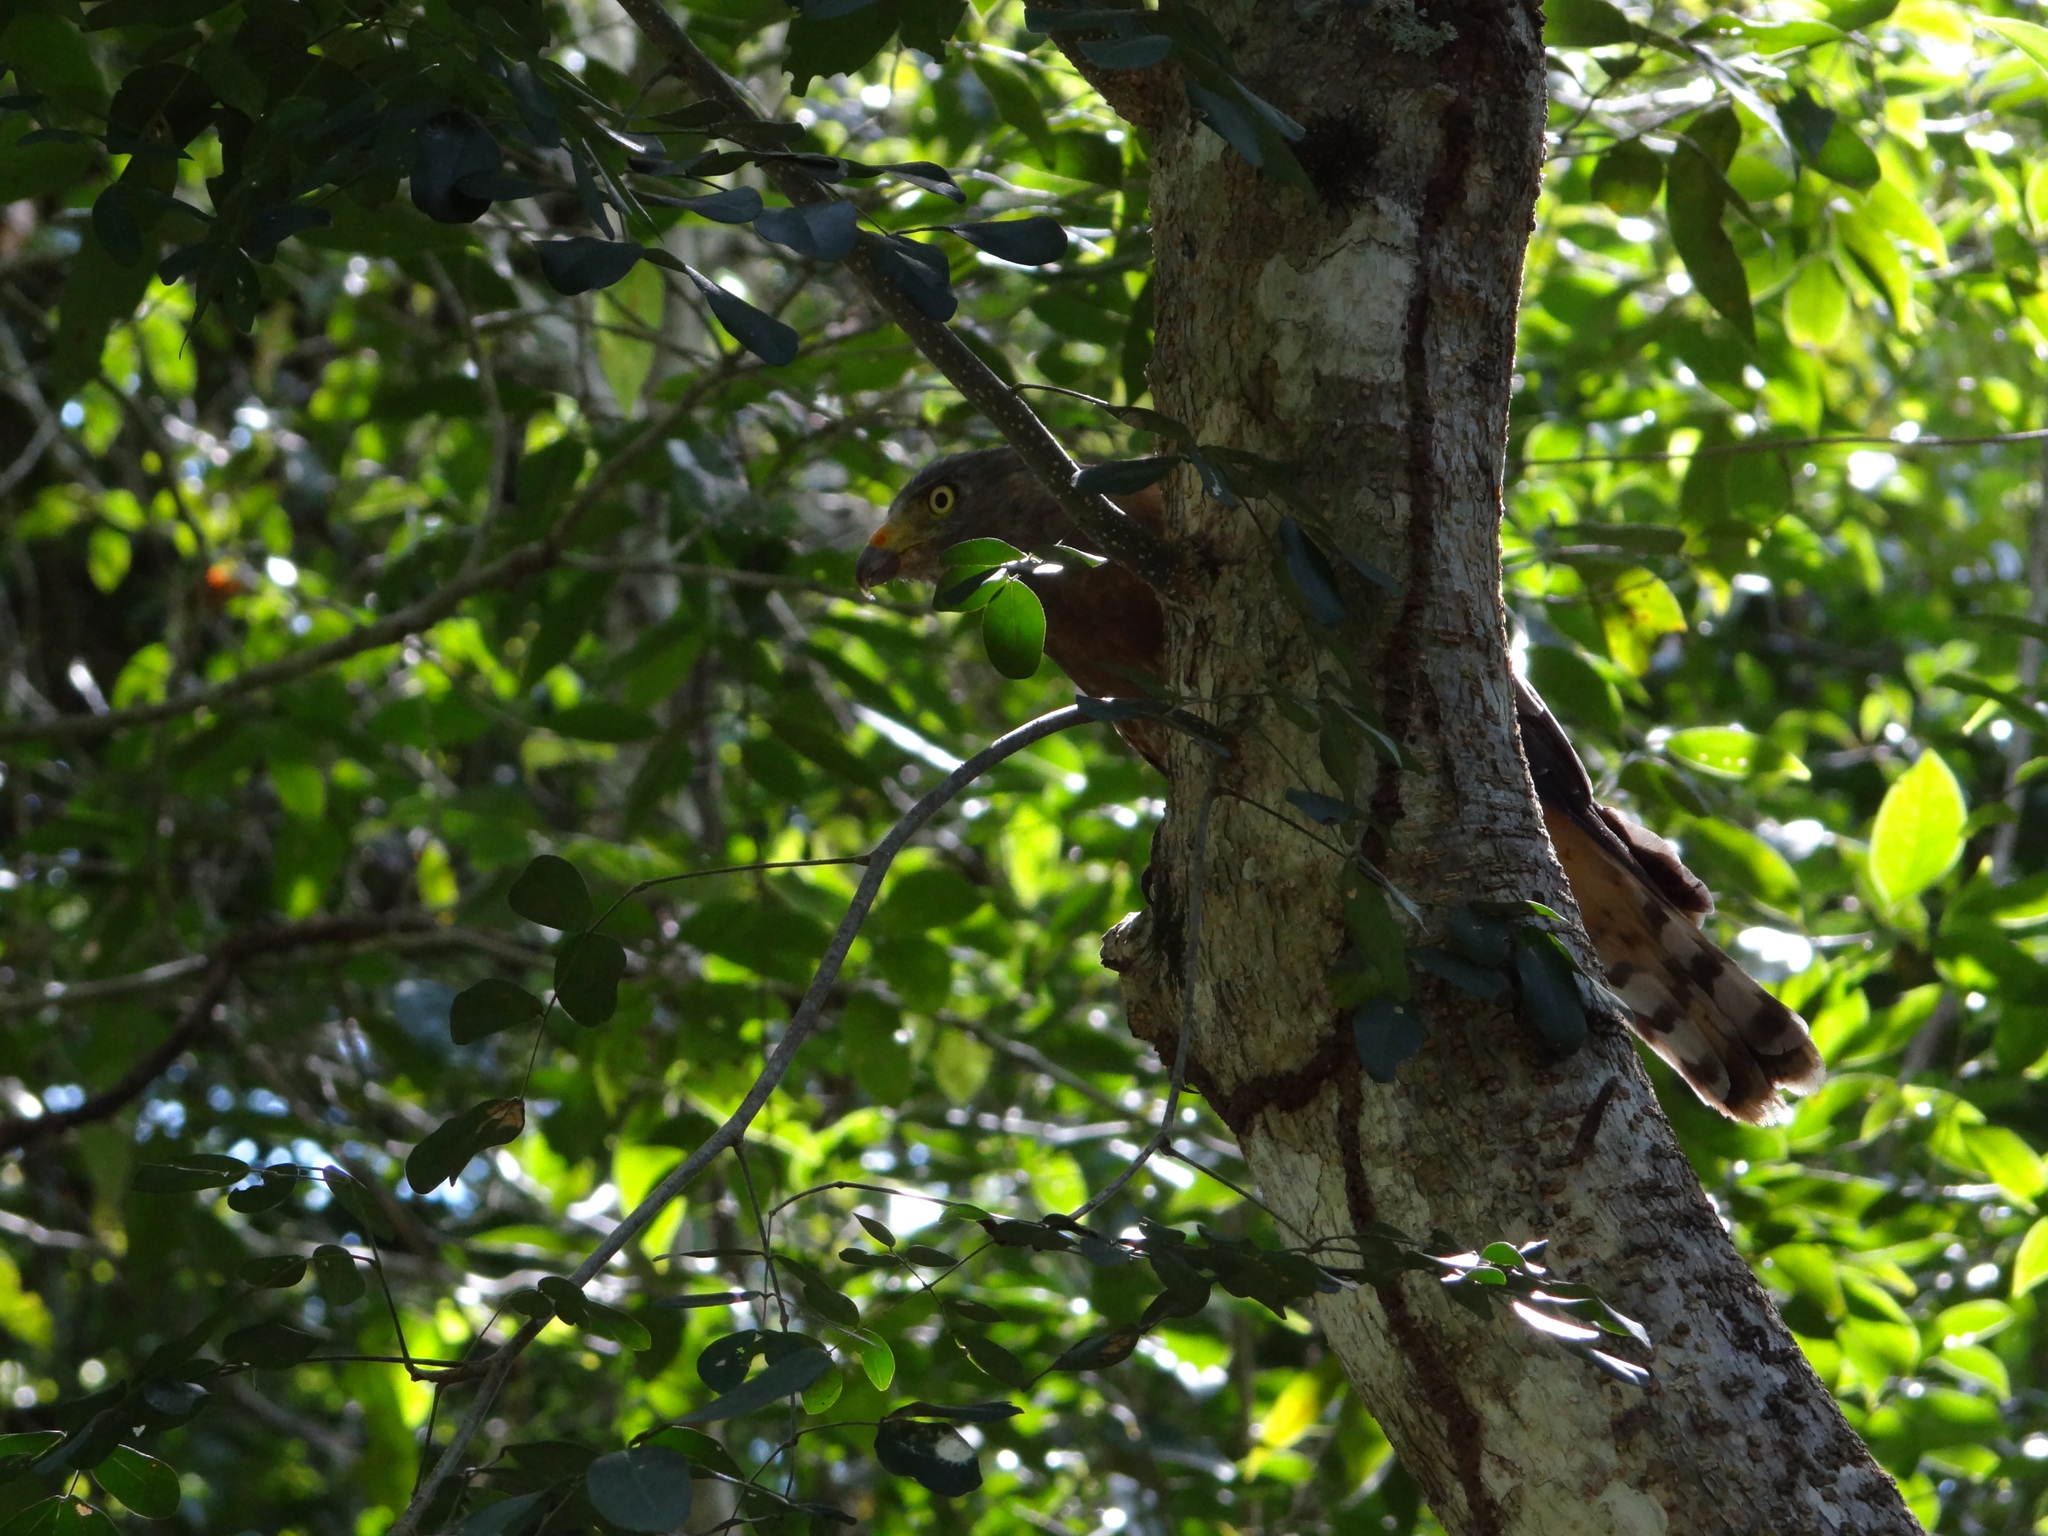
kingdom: Animalia
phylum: Chordata
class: Aves
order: Accipitriformes
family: Accipitridae
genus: Rupornis
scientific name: Rupornis magnirostris
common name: Roadside hawk
